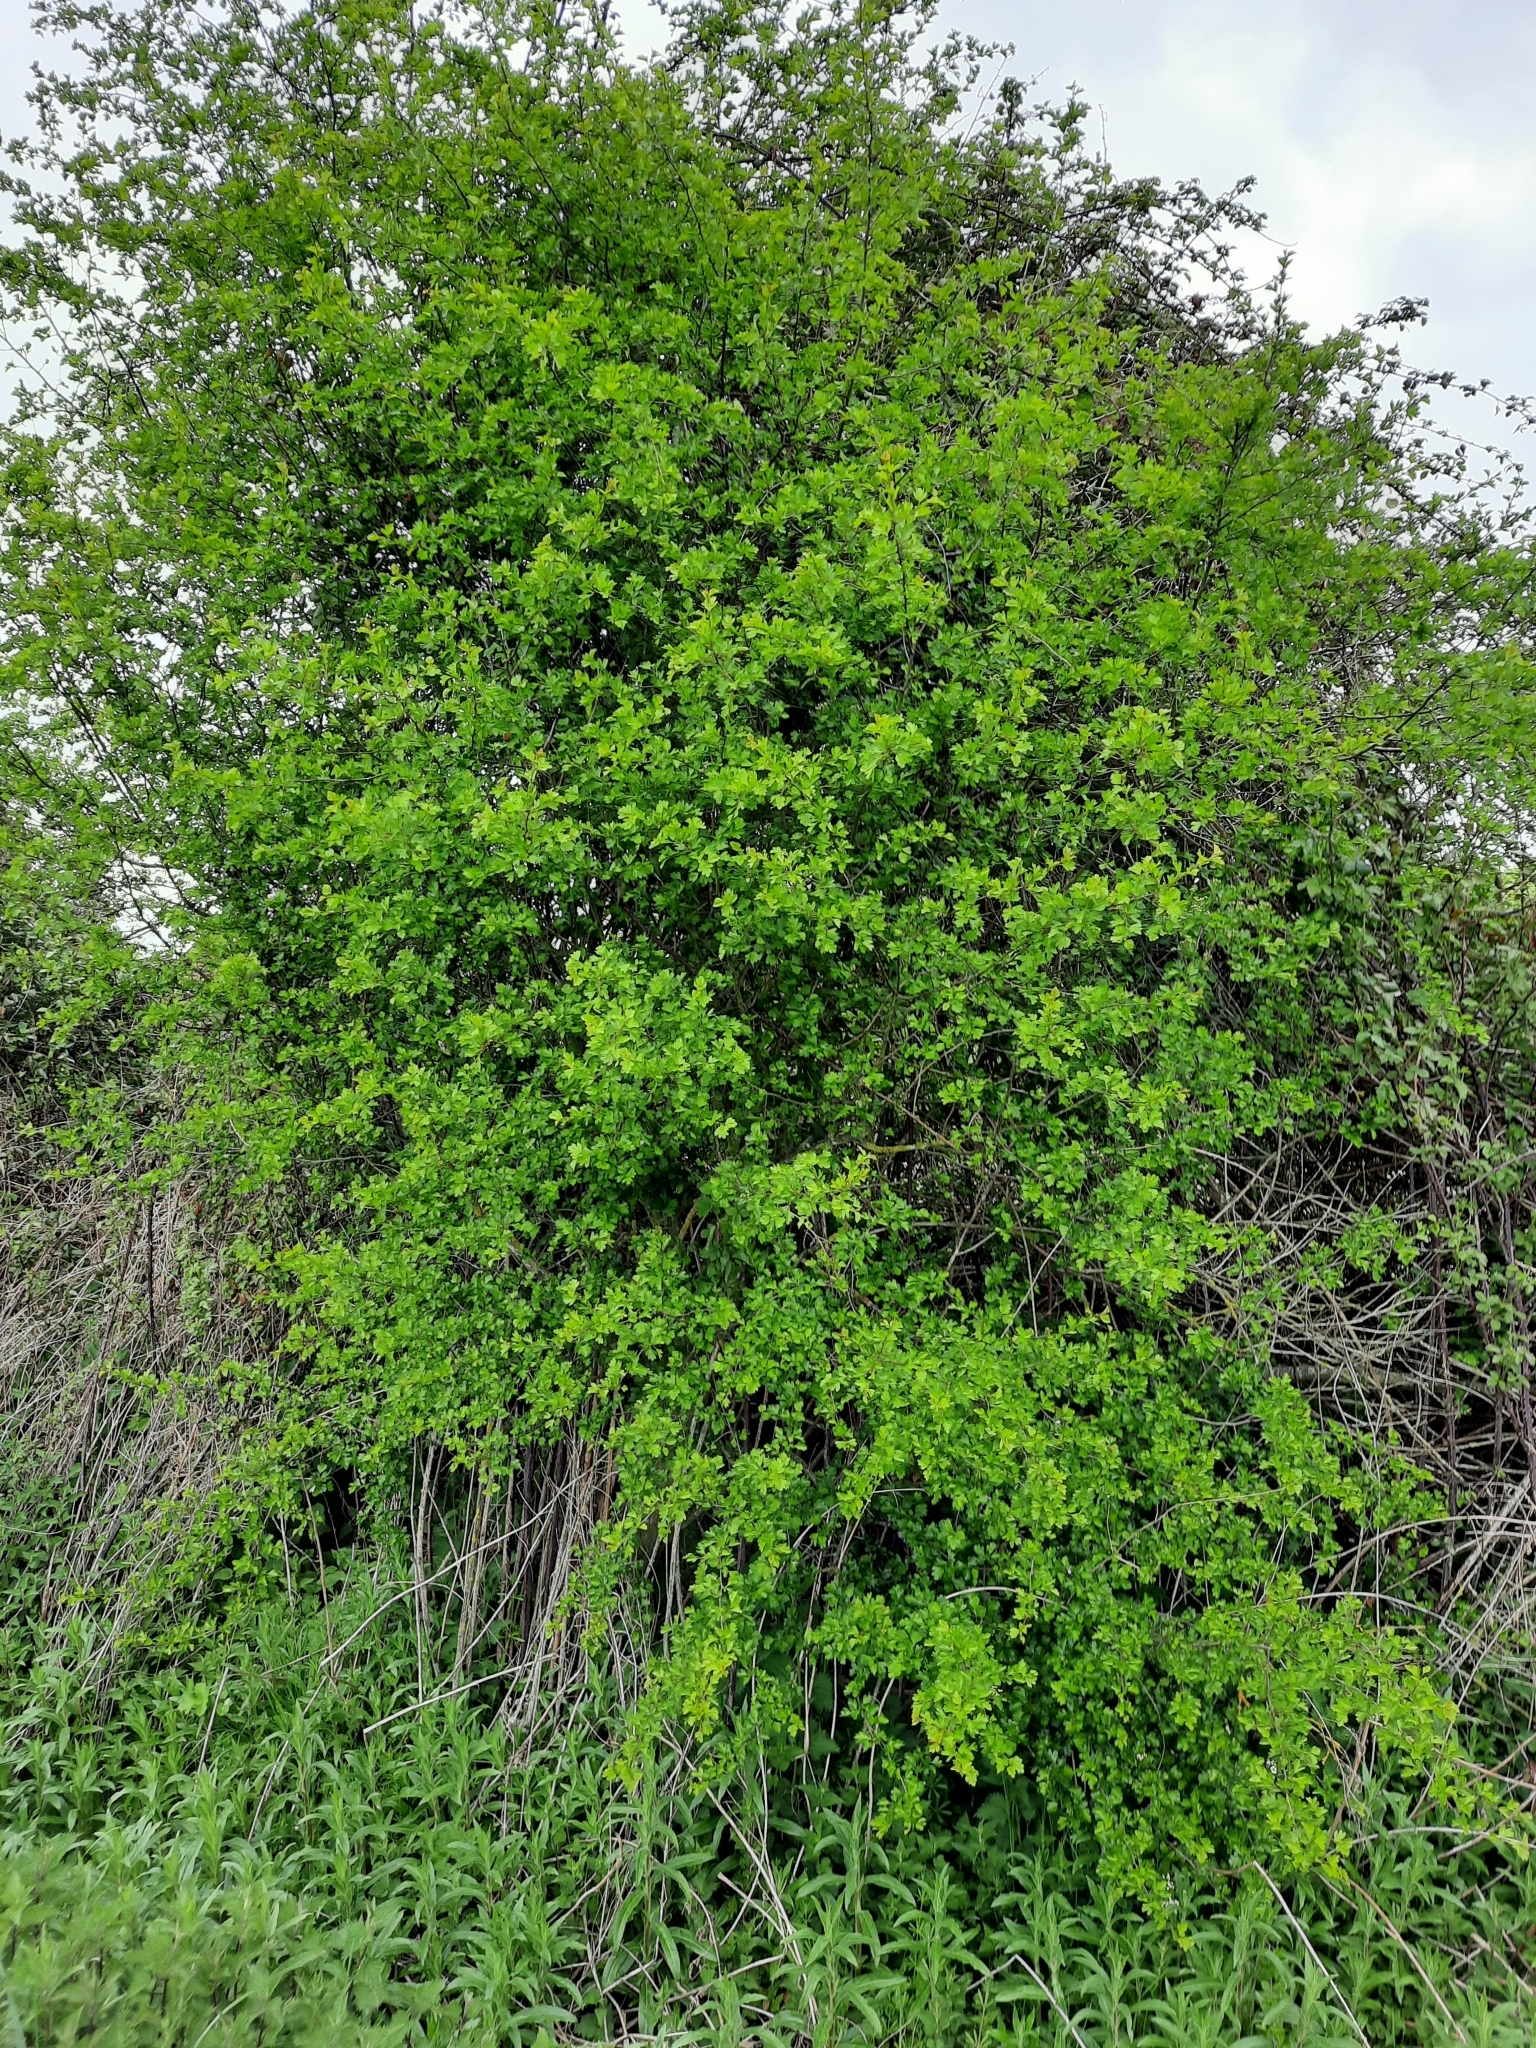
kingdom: Plantae
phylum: Tracheophyta
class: Magnoliopsida
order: Rosales
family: Rosaceae
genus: Crataegus
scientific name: Crataegus monogyna
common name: Hawthorn
